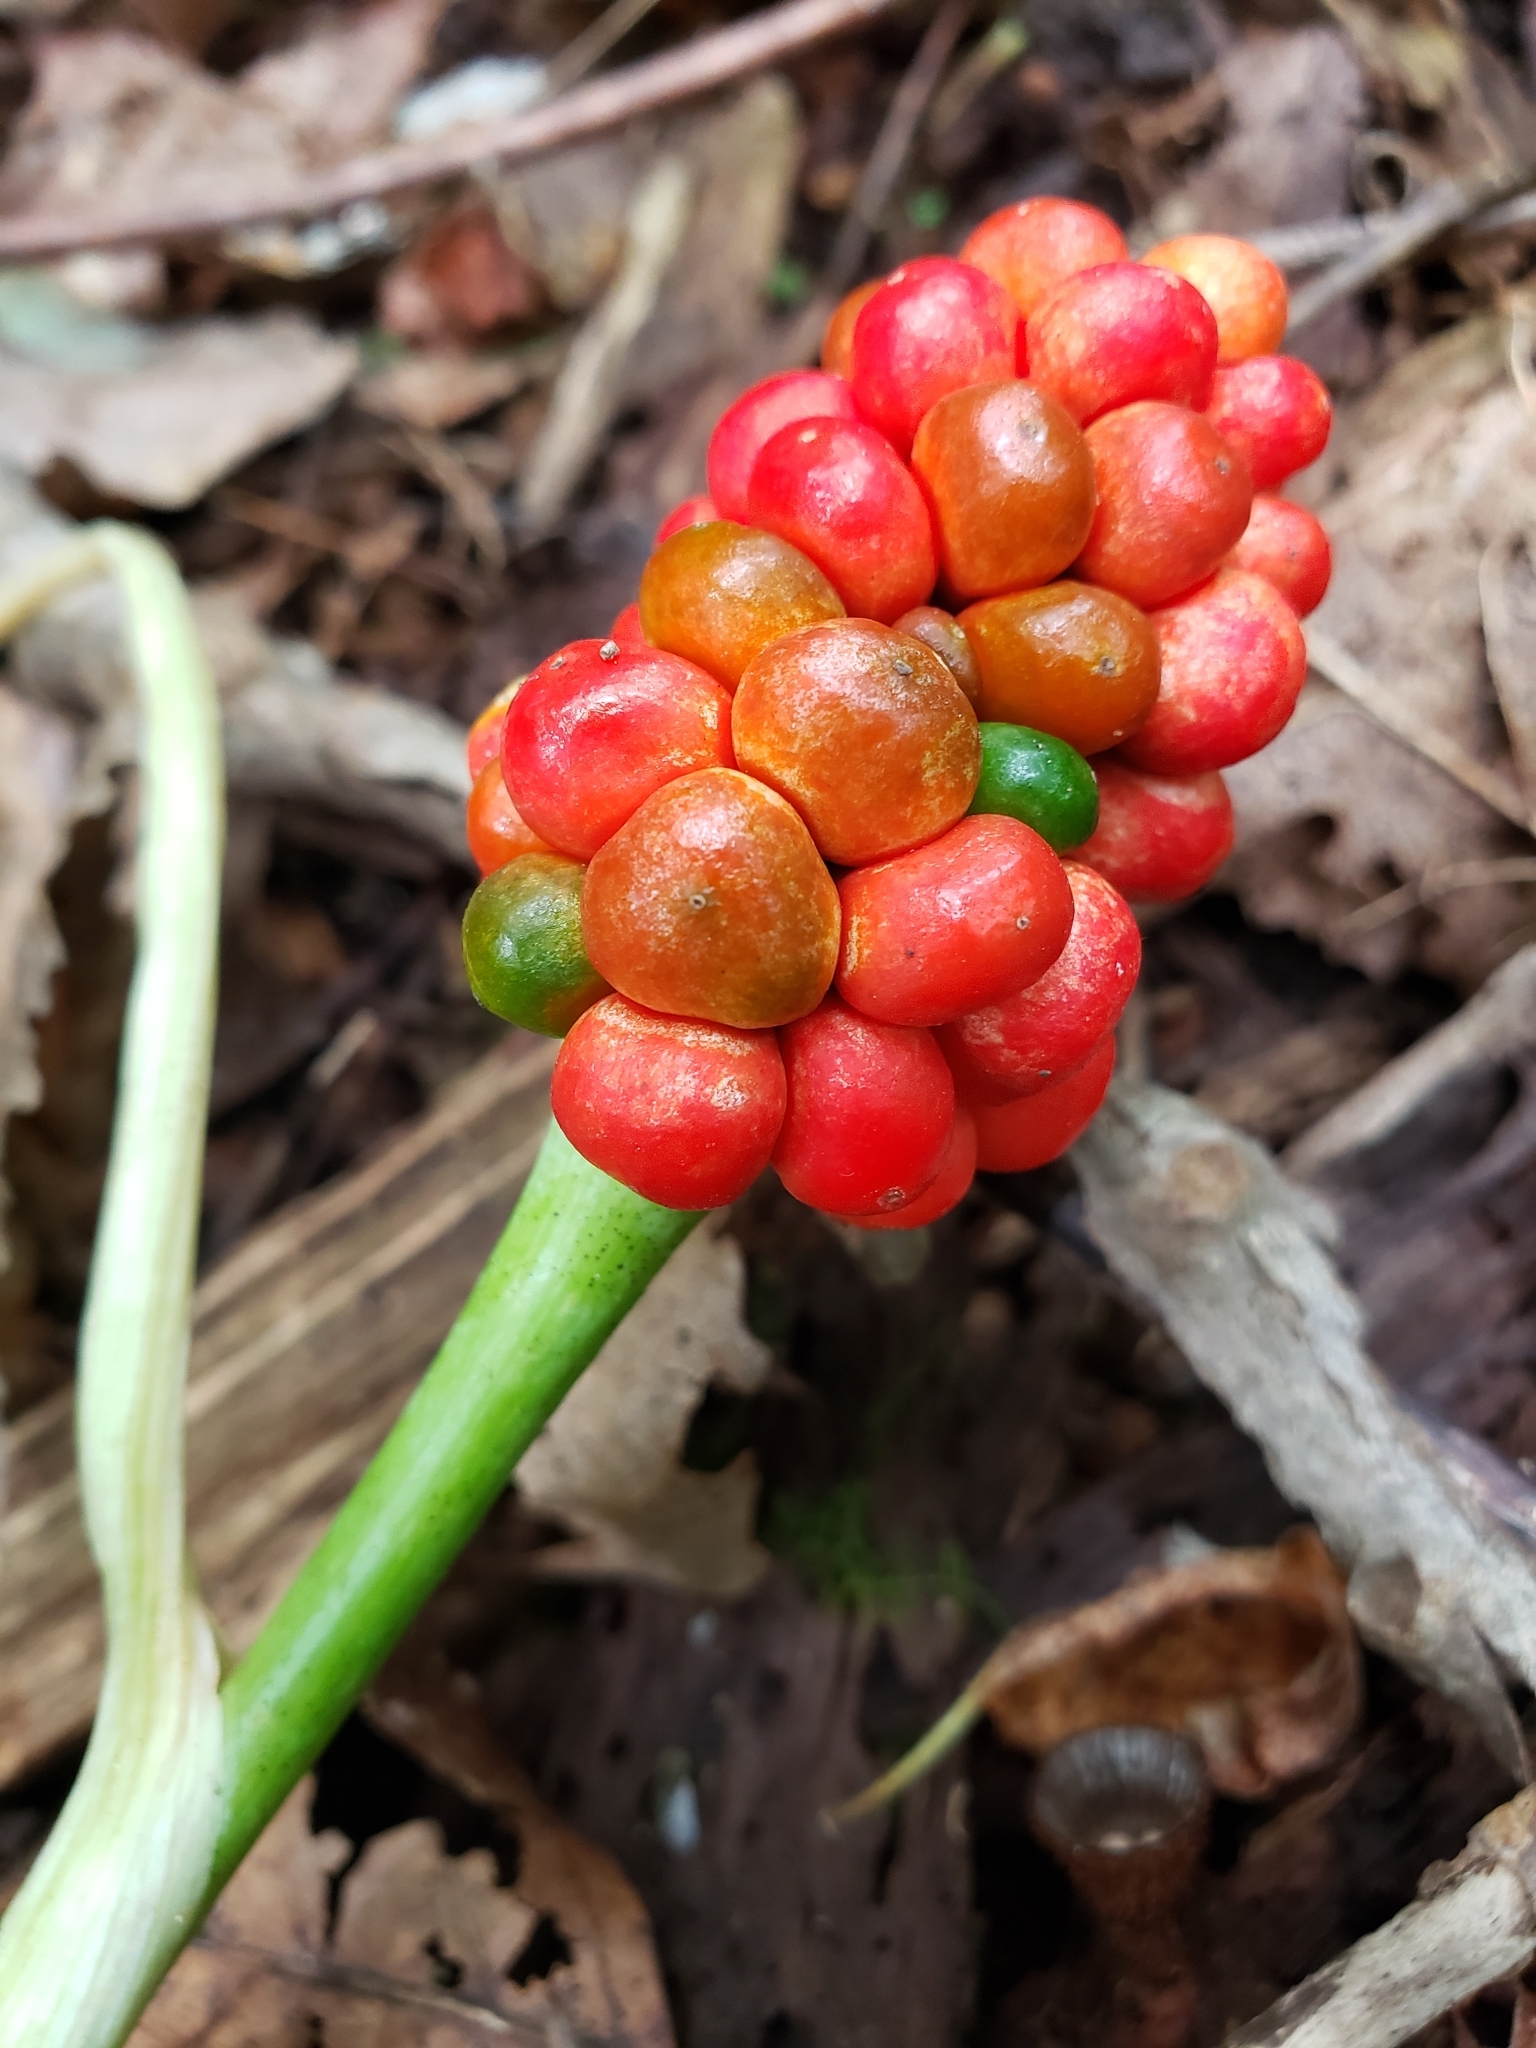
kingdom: Plantae
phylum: Tracheophyta
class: Liliopsida
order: Alismatales
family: Araceae
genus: Arisaema
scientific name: Arisaema triphyllum
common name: Jack-in-the-pulpit
